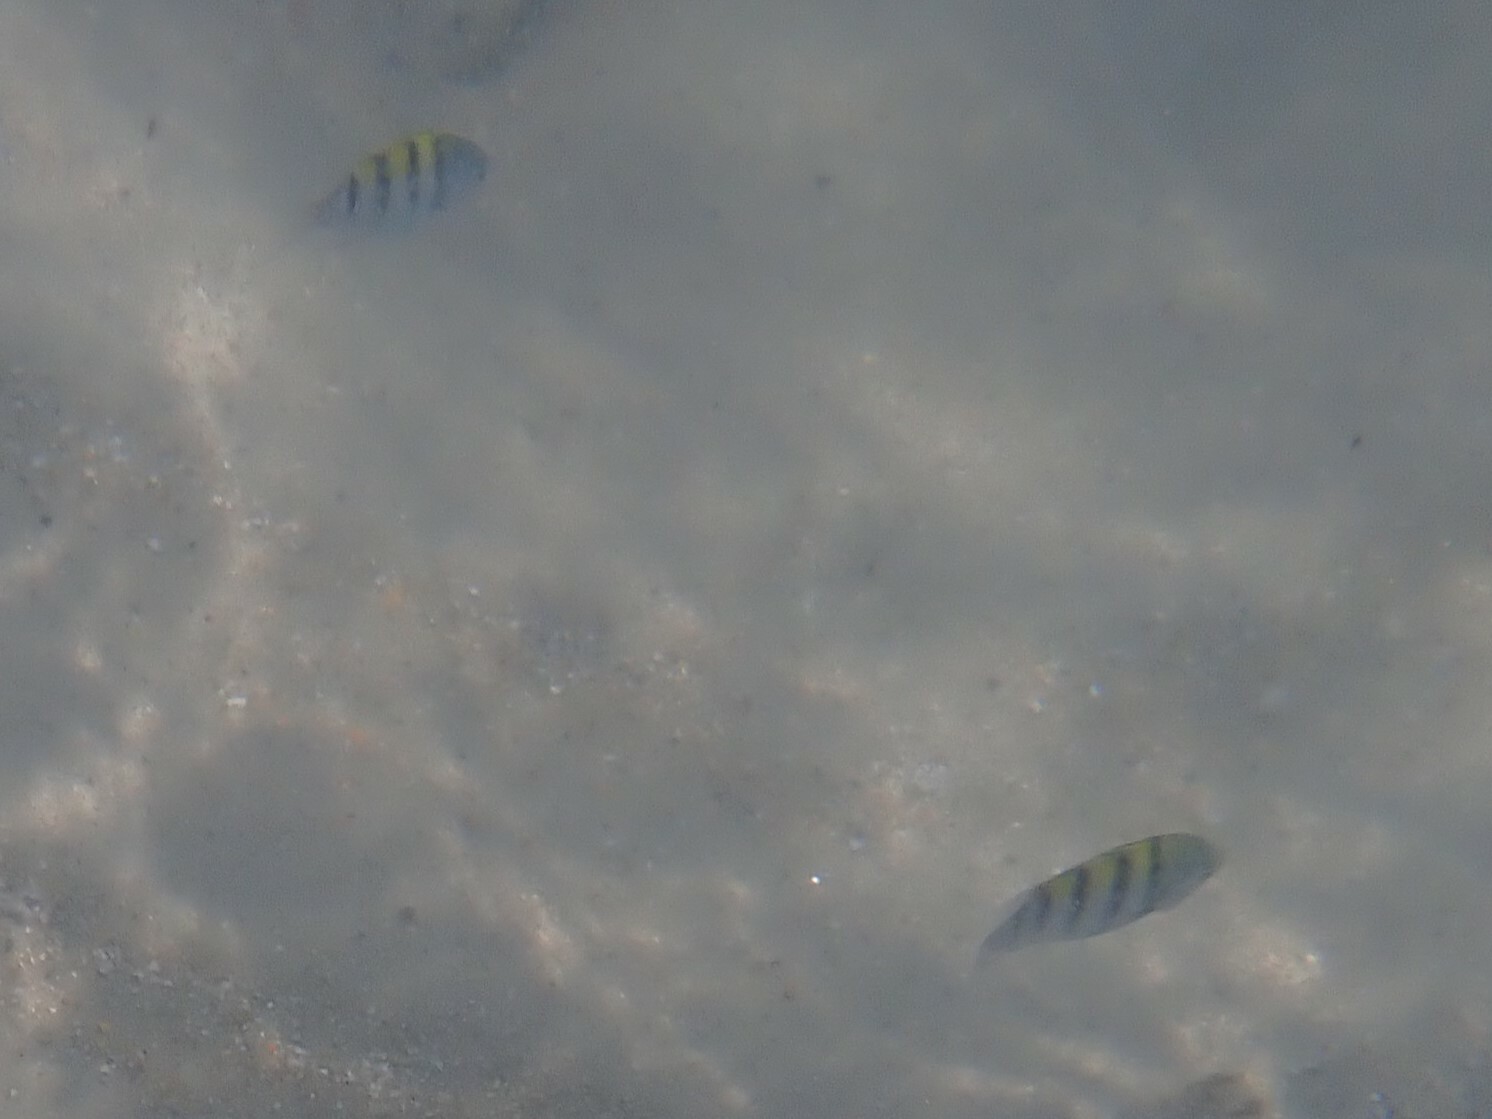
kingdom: Animalia
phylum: Chordata
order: Perciformes
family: Pomacentridae
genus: Abudefduf
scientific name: Abudefduf saxatilis
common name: Sergeant major
